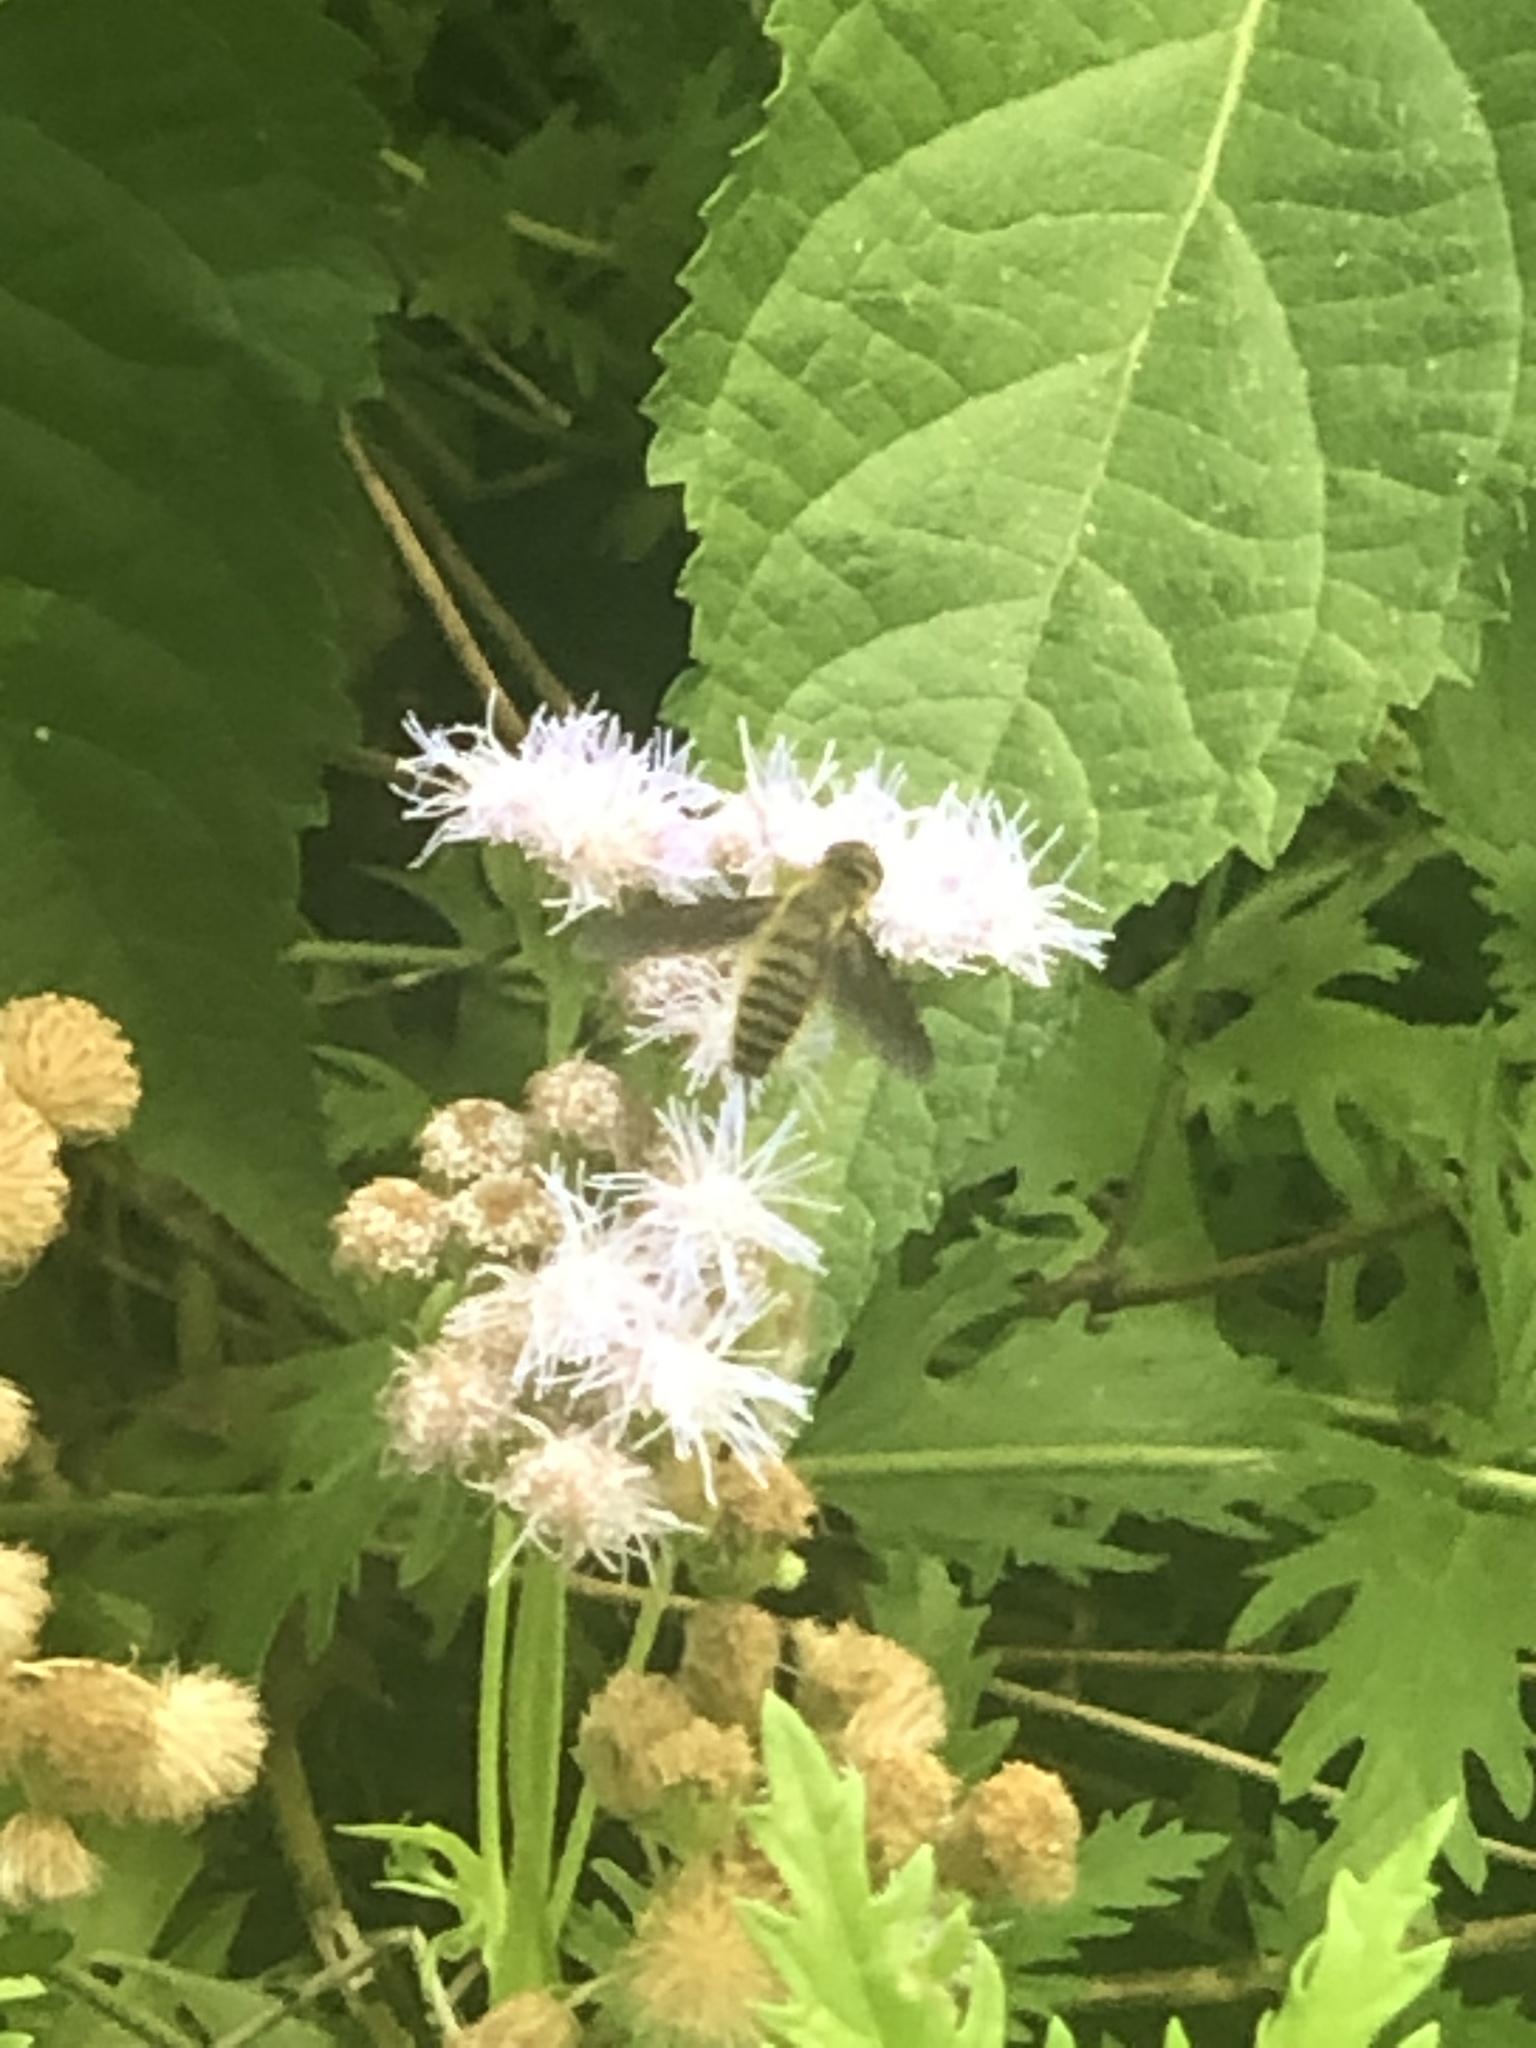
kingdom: Animalia
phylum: Arthropoda
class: Insecta
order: Diptera
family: Bombyliidae
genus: Poecilanthrax
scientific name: Poecilanthrax lucifer
